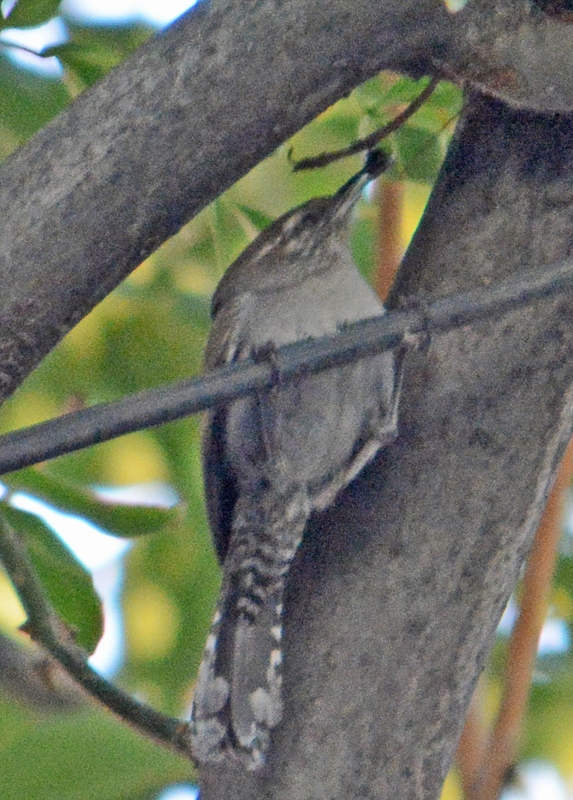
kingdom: Animalia
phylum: Chordata
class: Aves
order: Passeriformes
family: Troglodytidae
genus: Thryomanes
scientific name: Thryomanes bewickii
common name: Bewick's wren
